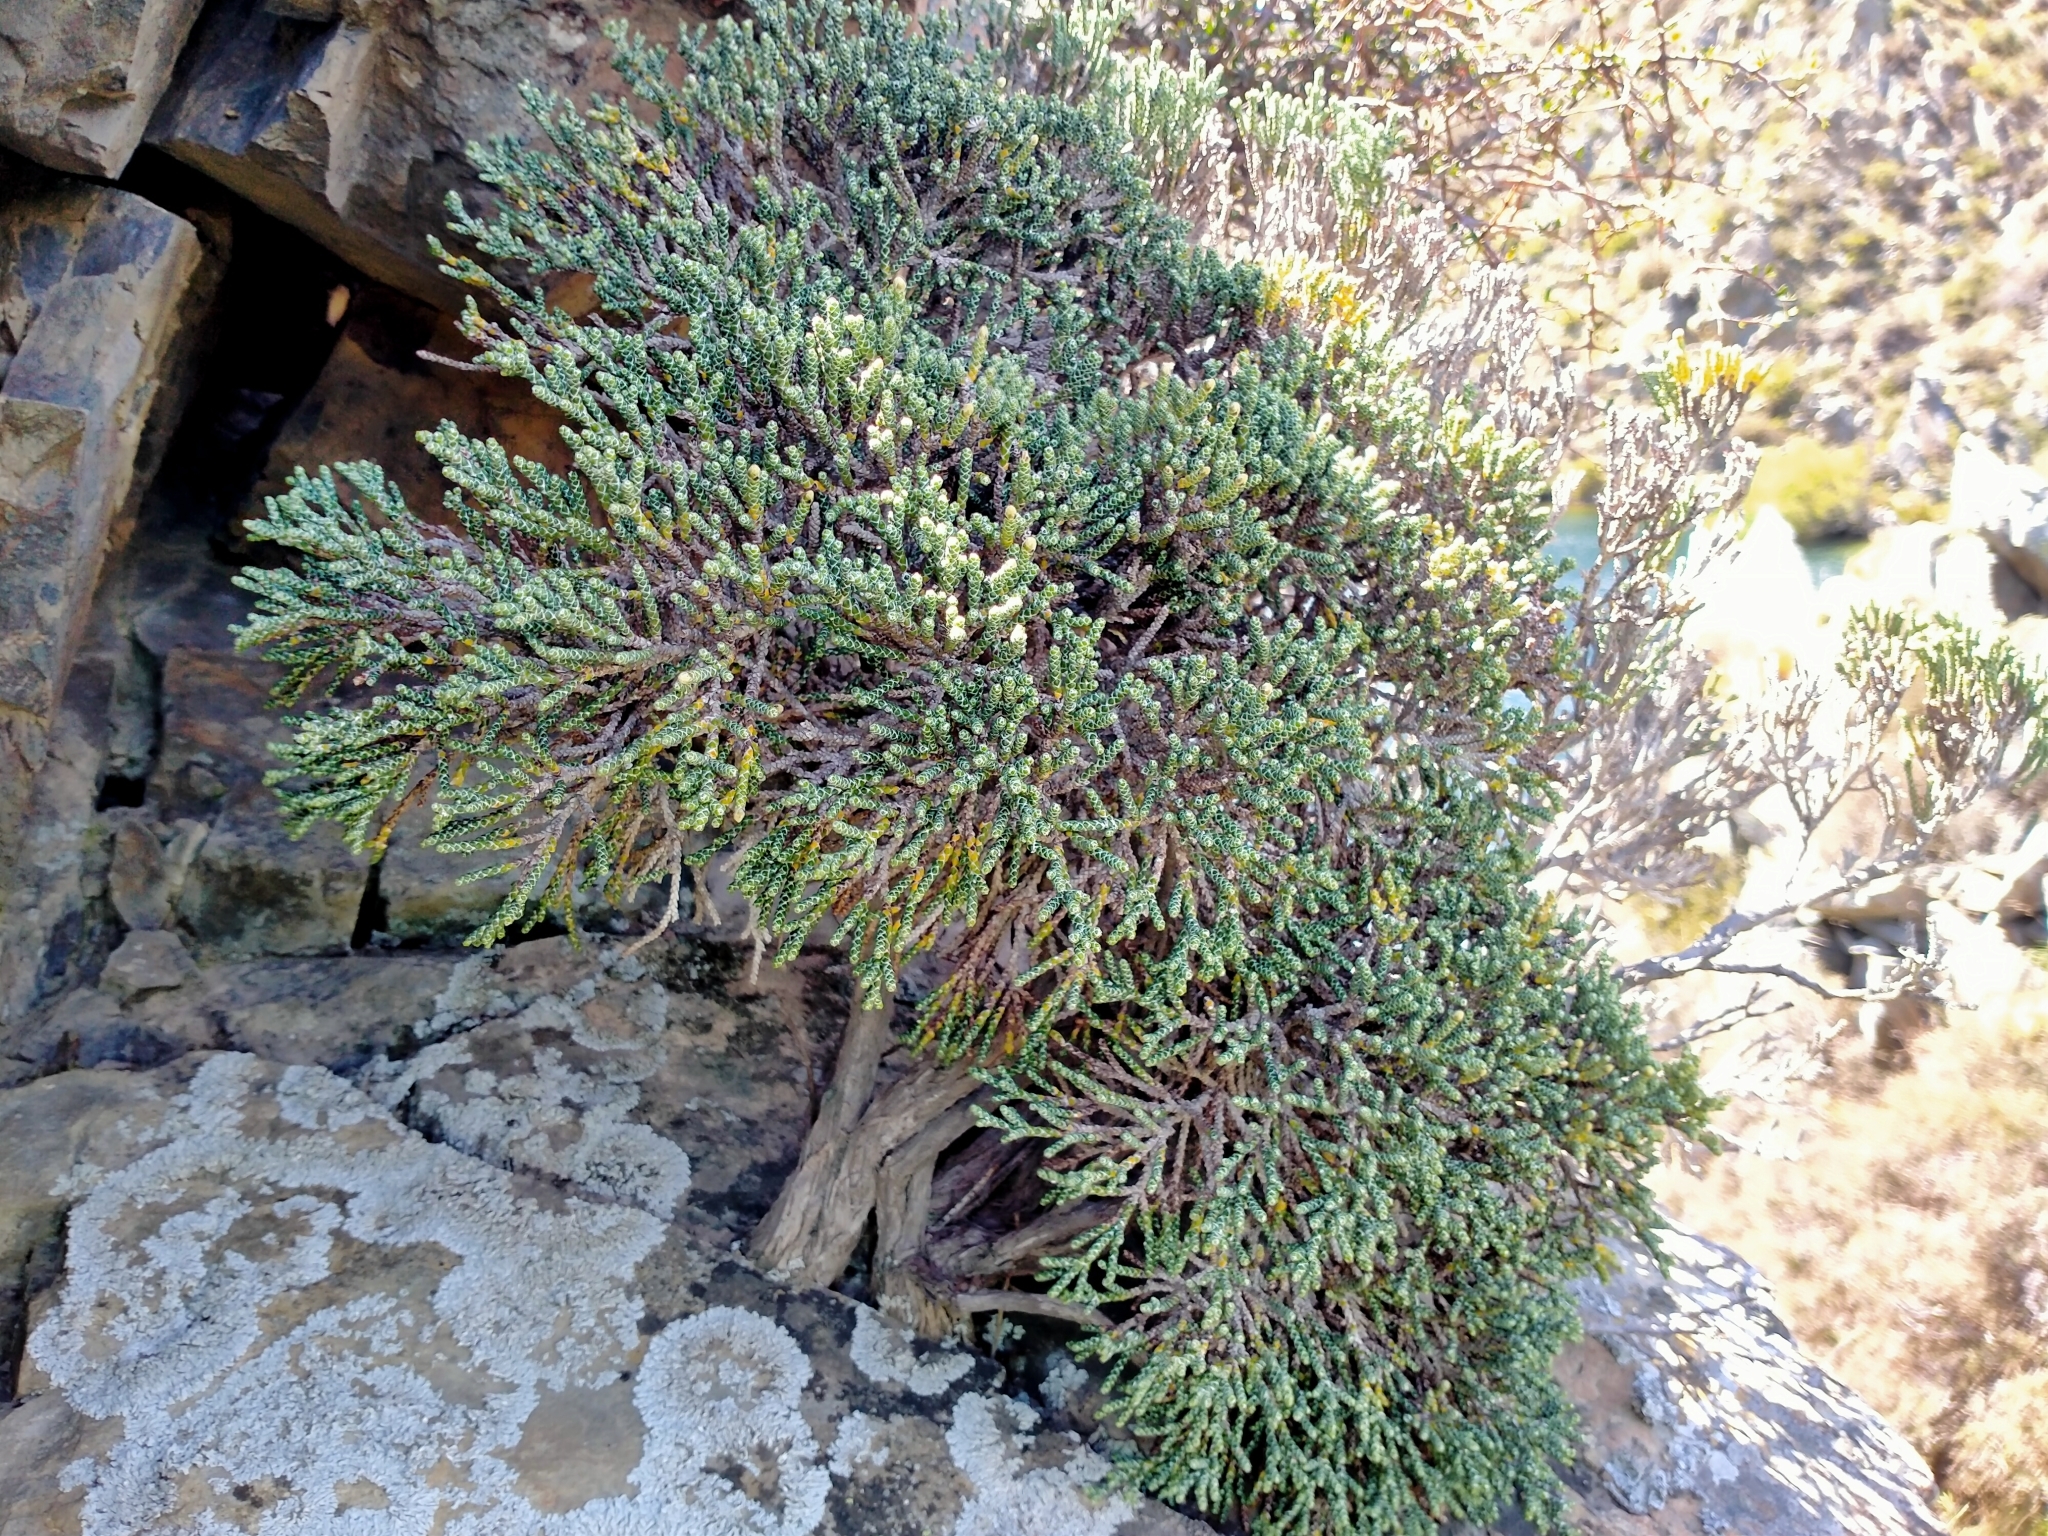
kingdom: Plantae
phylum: Tracheophyta
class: Magnoliopsida
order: Asterales
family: Asteraceae
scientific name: Asteraceae
